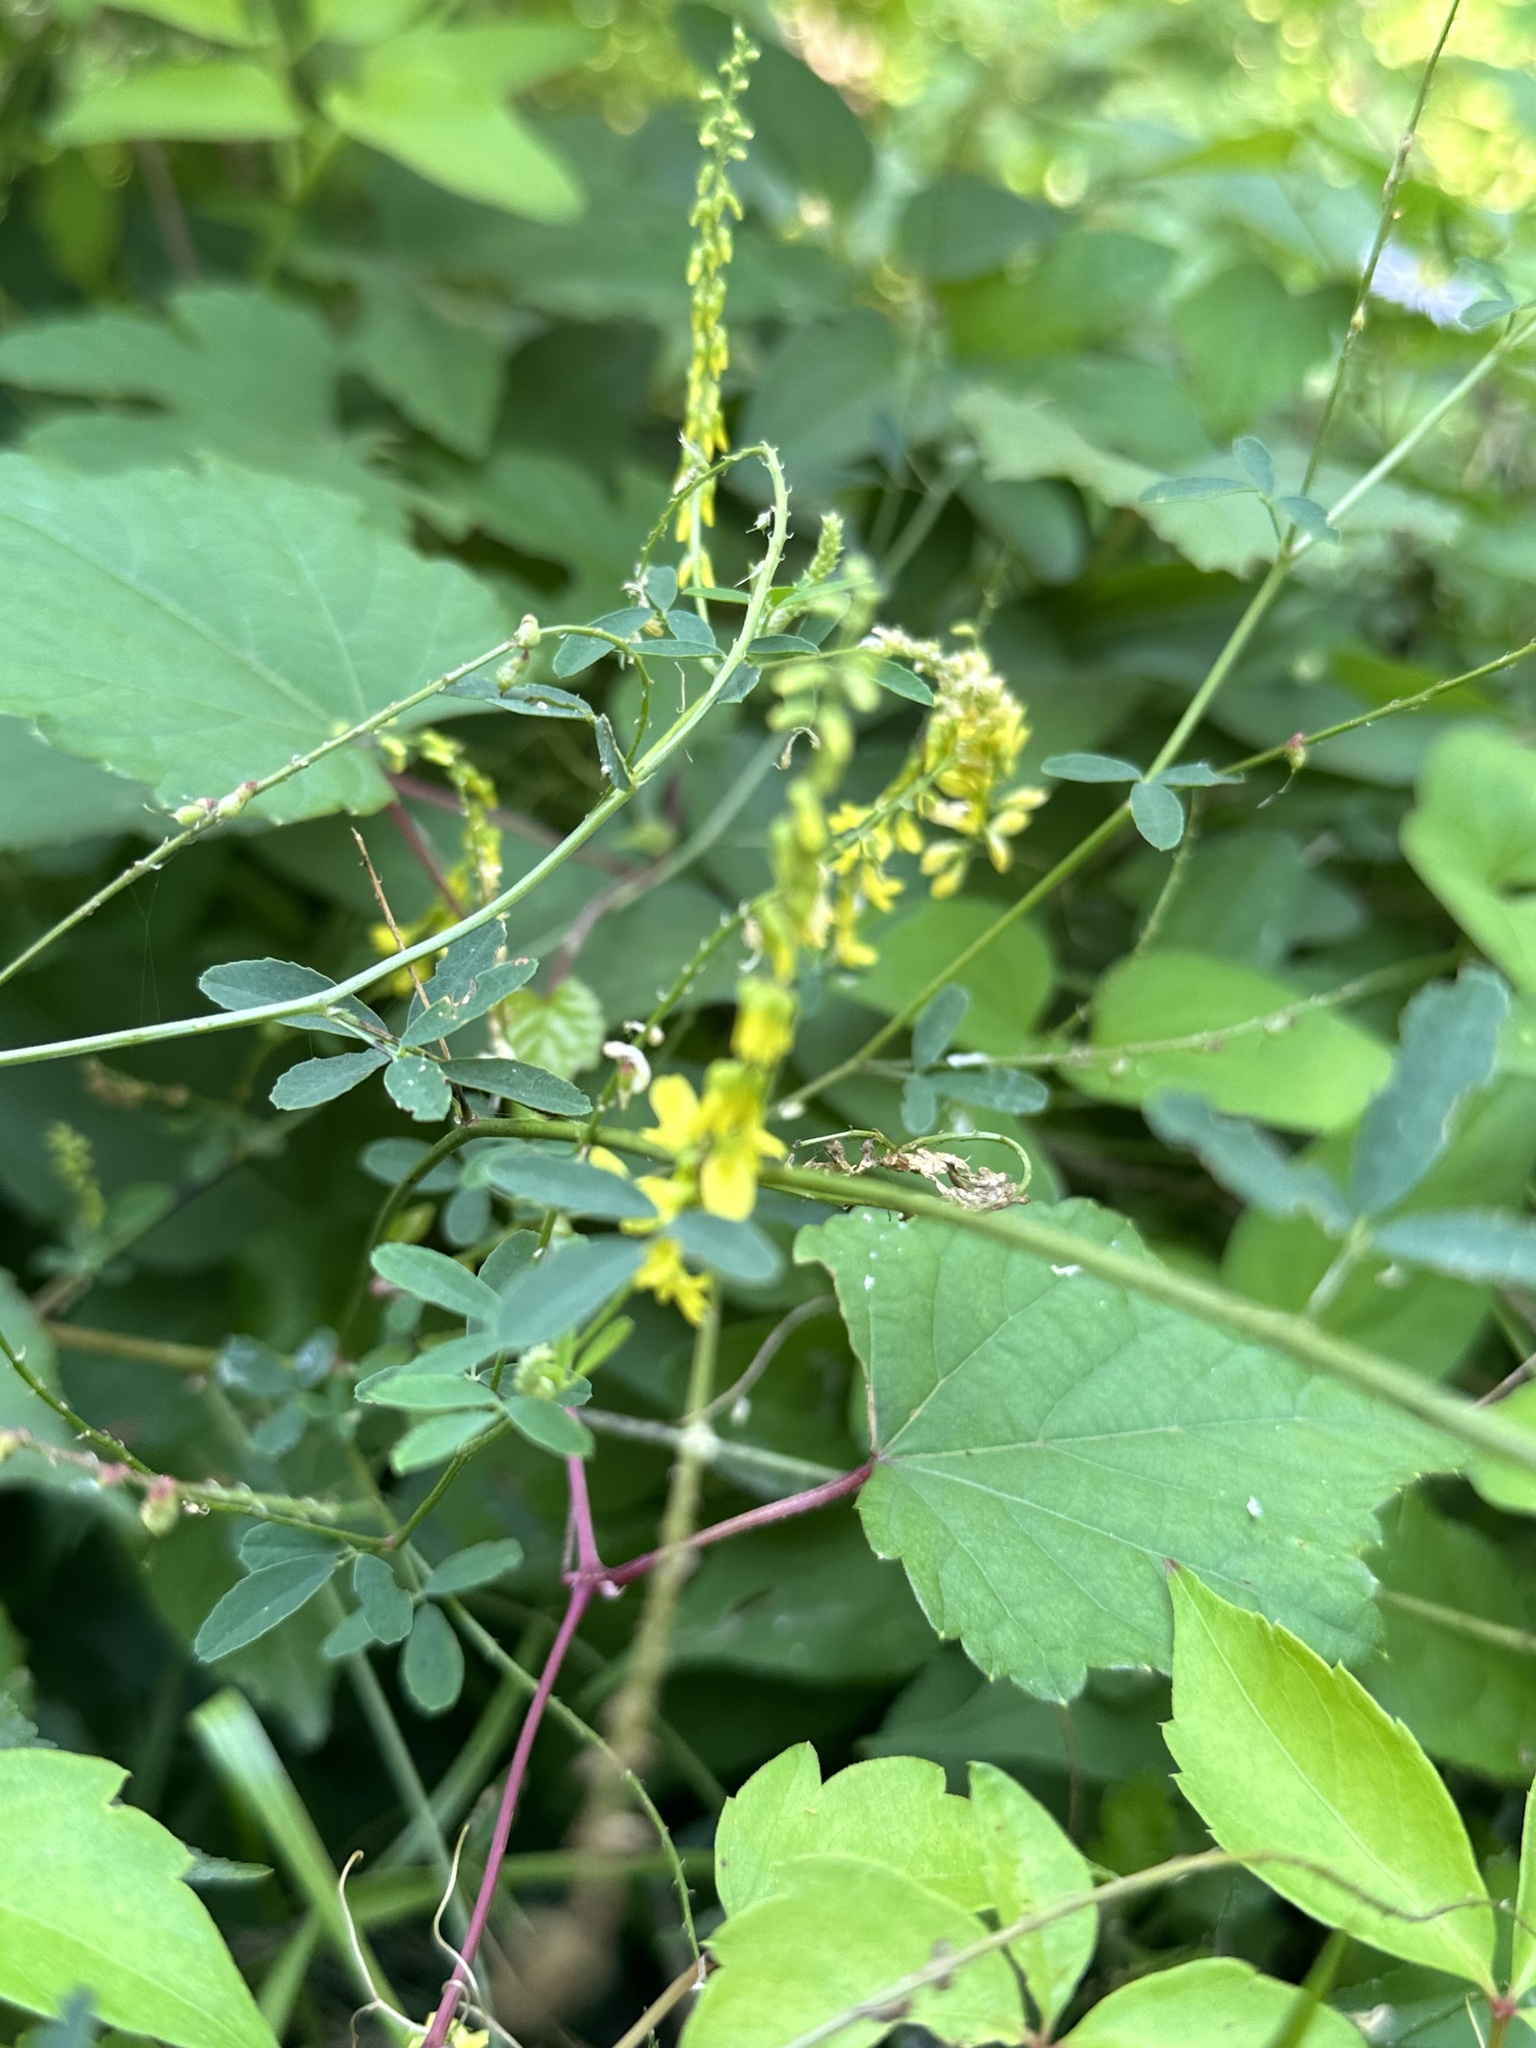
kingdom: Plantae
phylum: Tracheophyta
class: Magnoliopsida
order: Fabales
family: Fabaceae
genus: Melilotus
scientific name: Melilotus officinalis
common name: Sweetclover
